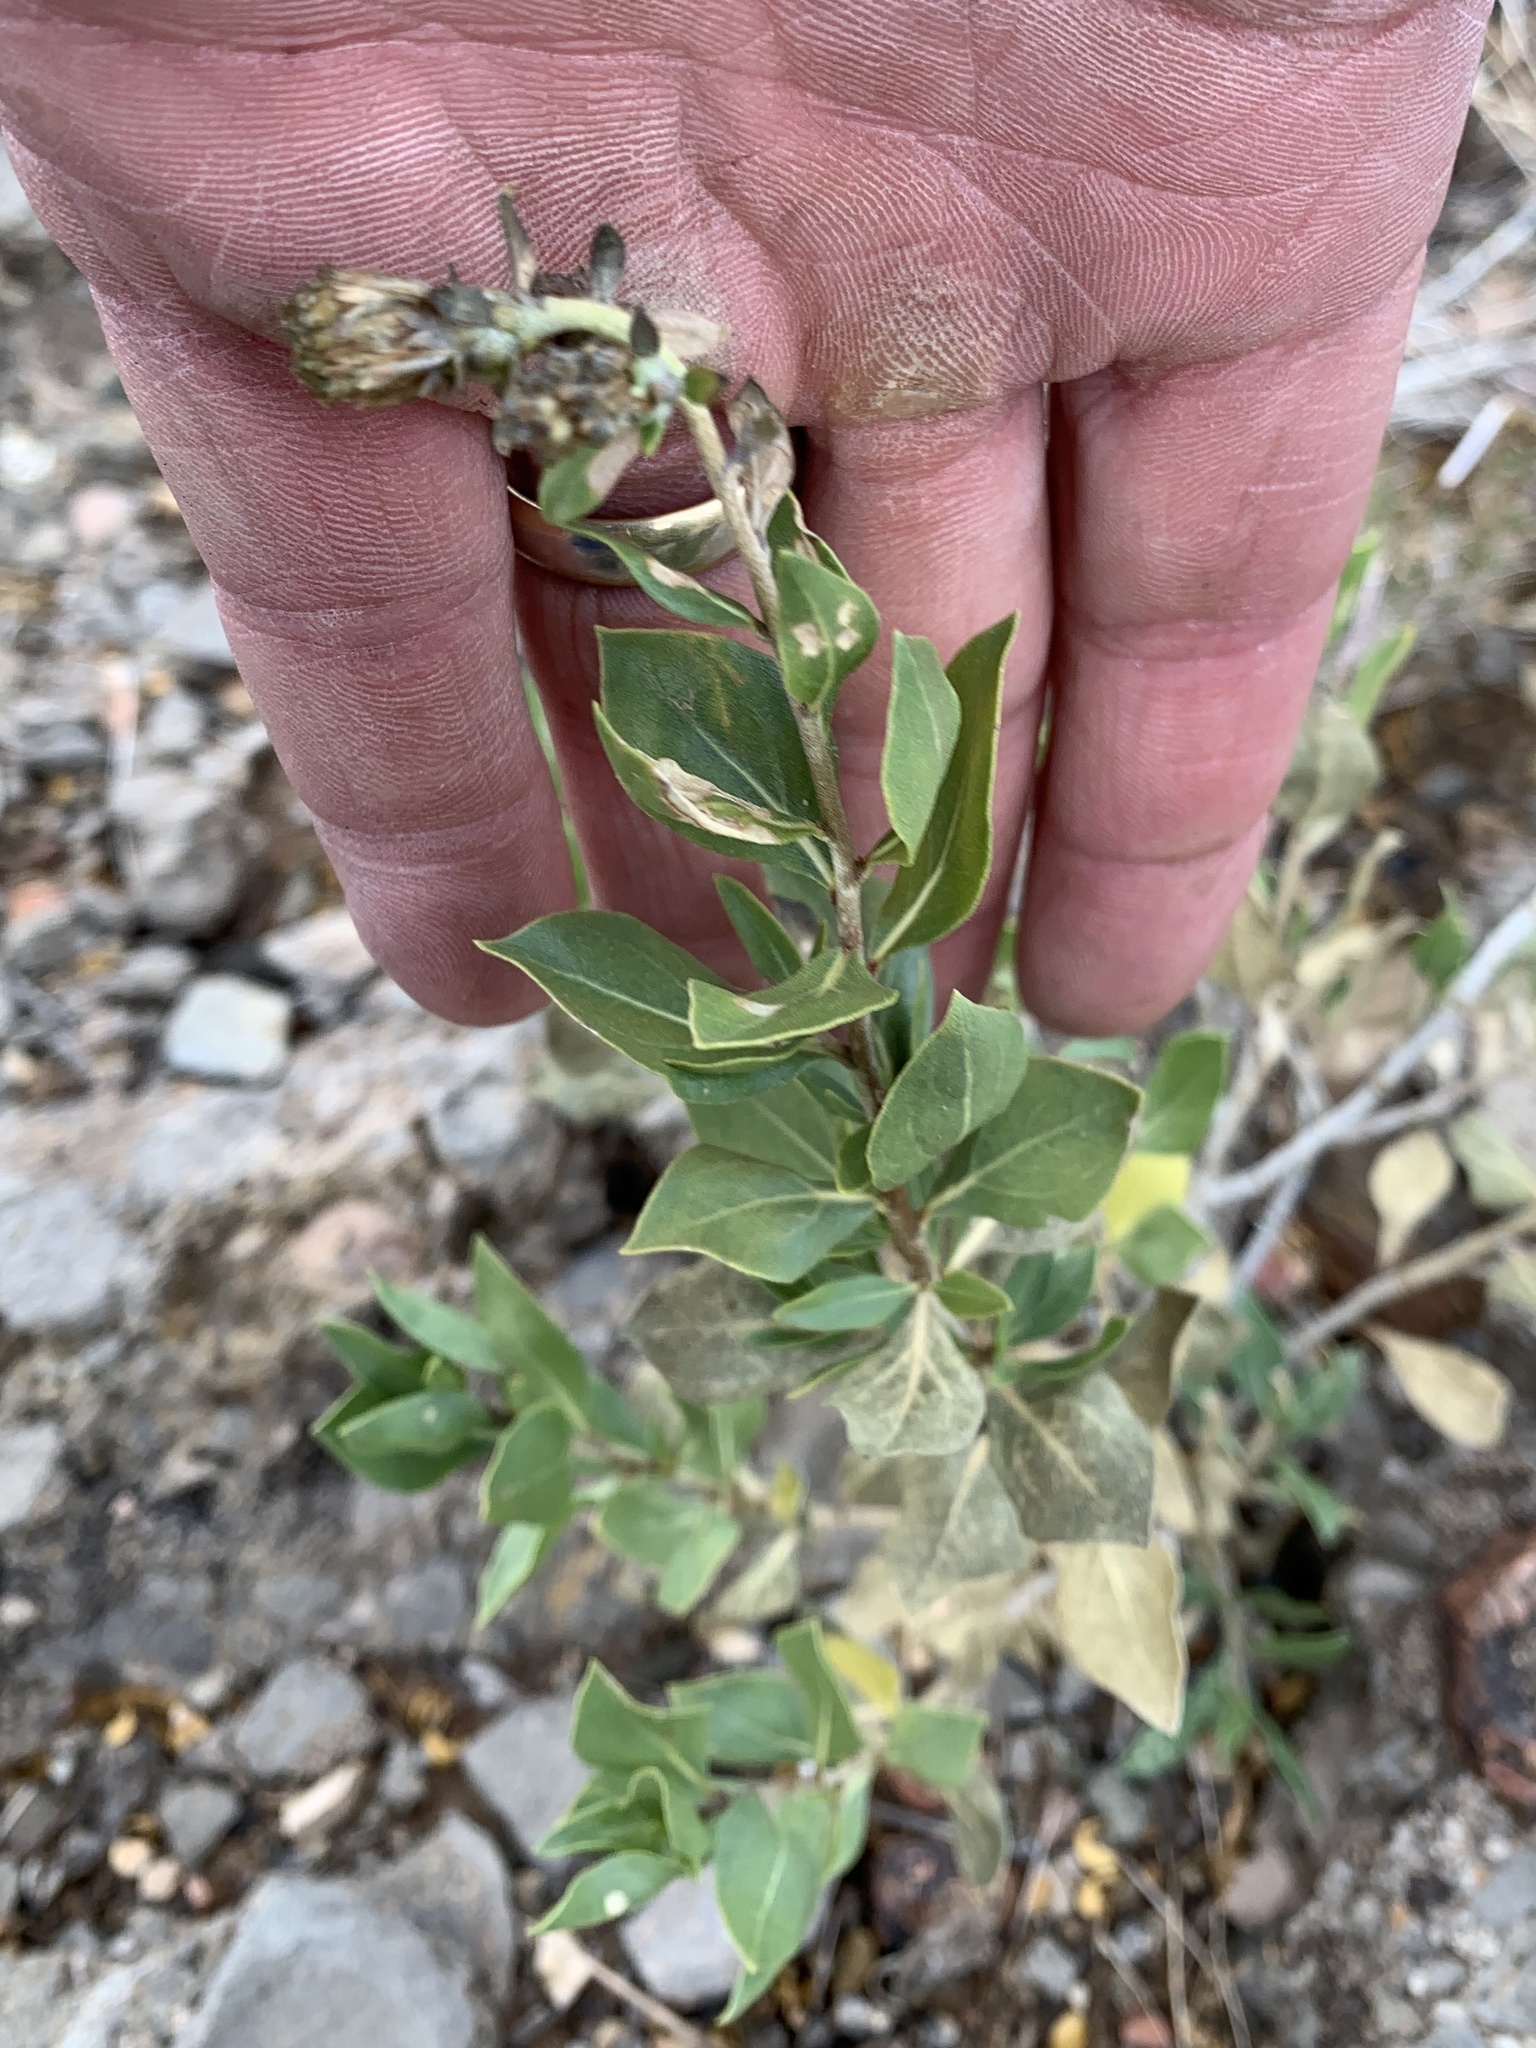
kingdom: Plantae
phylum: Tracheophyta
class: Magnoliopsida
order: Asterales
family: Asteraceae
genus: Flourensia
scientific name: Flourensia cernua
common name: Varnishbush
